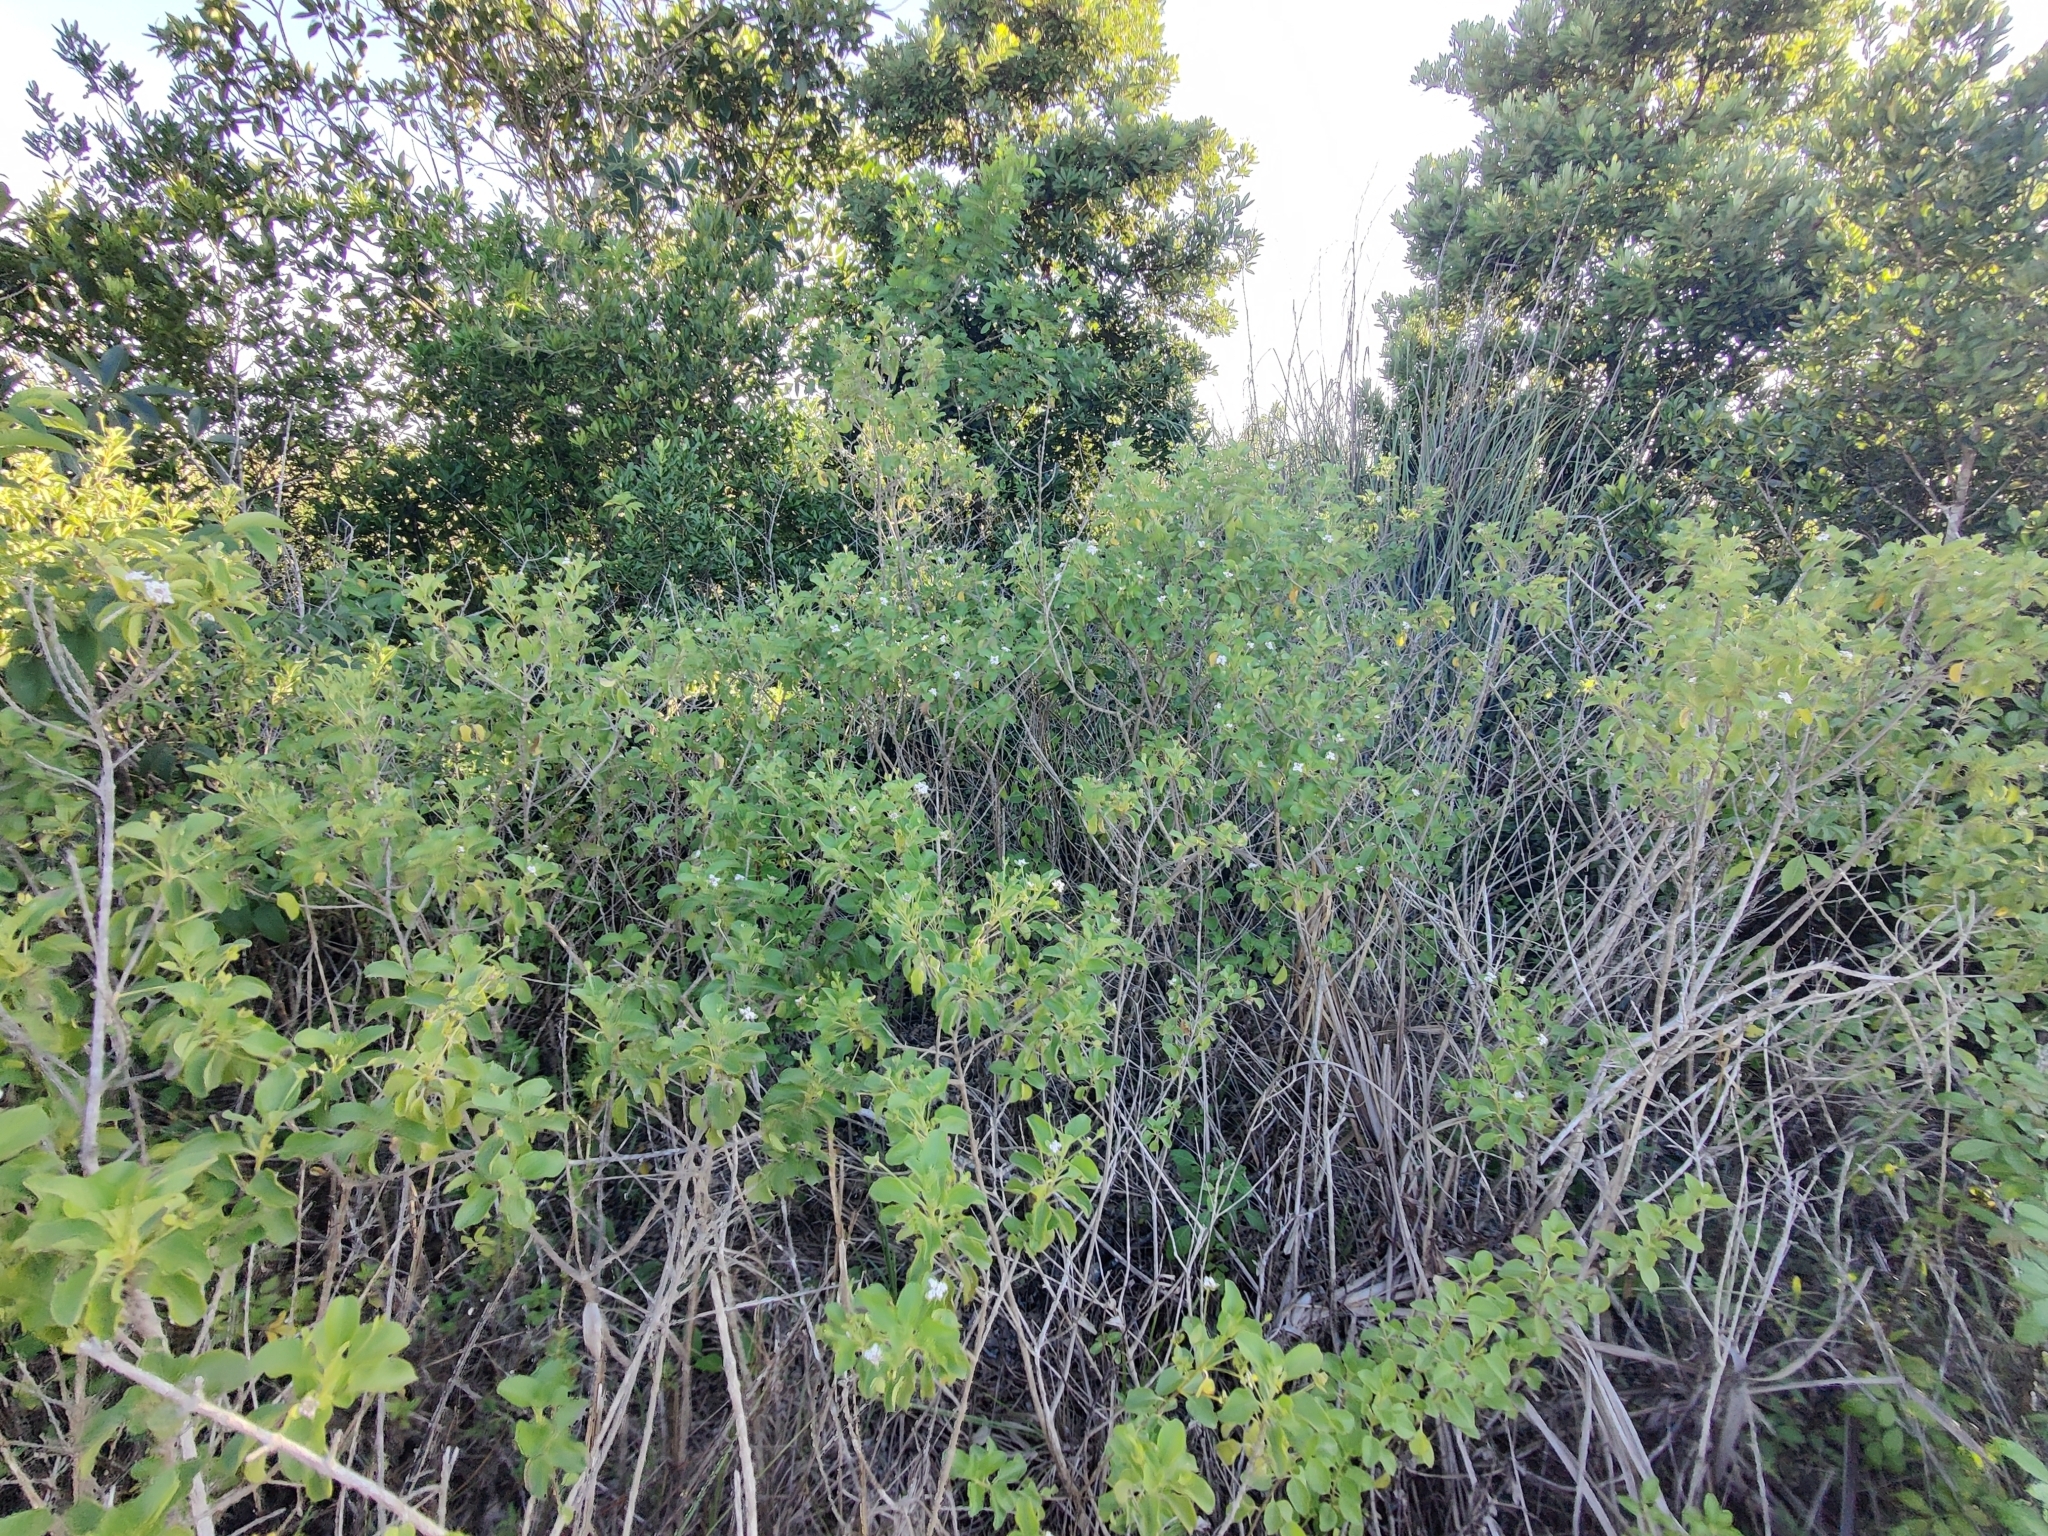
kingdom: Plantae
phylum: Tracheophyta
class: Magnoliopsida
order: Lamiales
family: Verbenaceae
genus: Lantana
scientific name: Lantana involucrata
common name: Black sage
